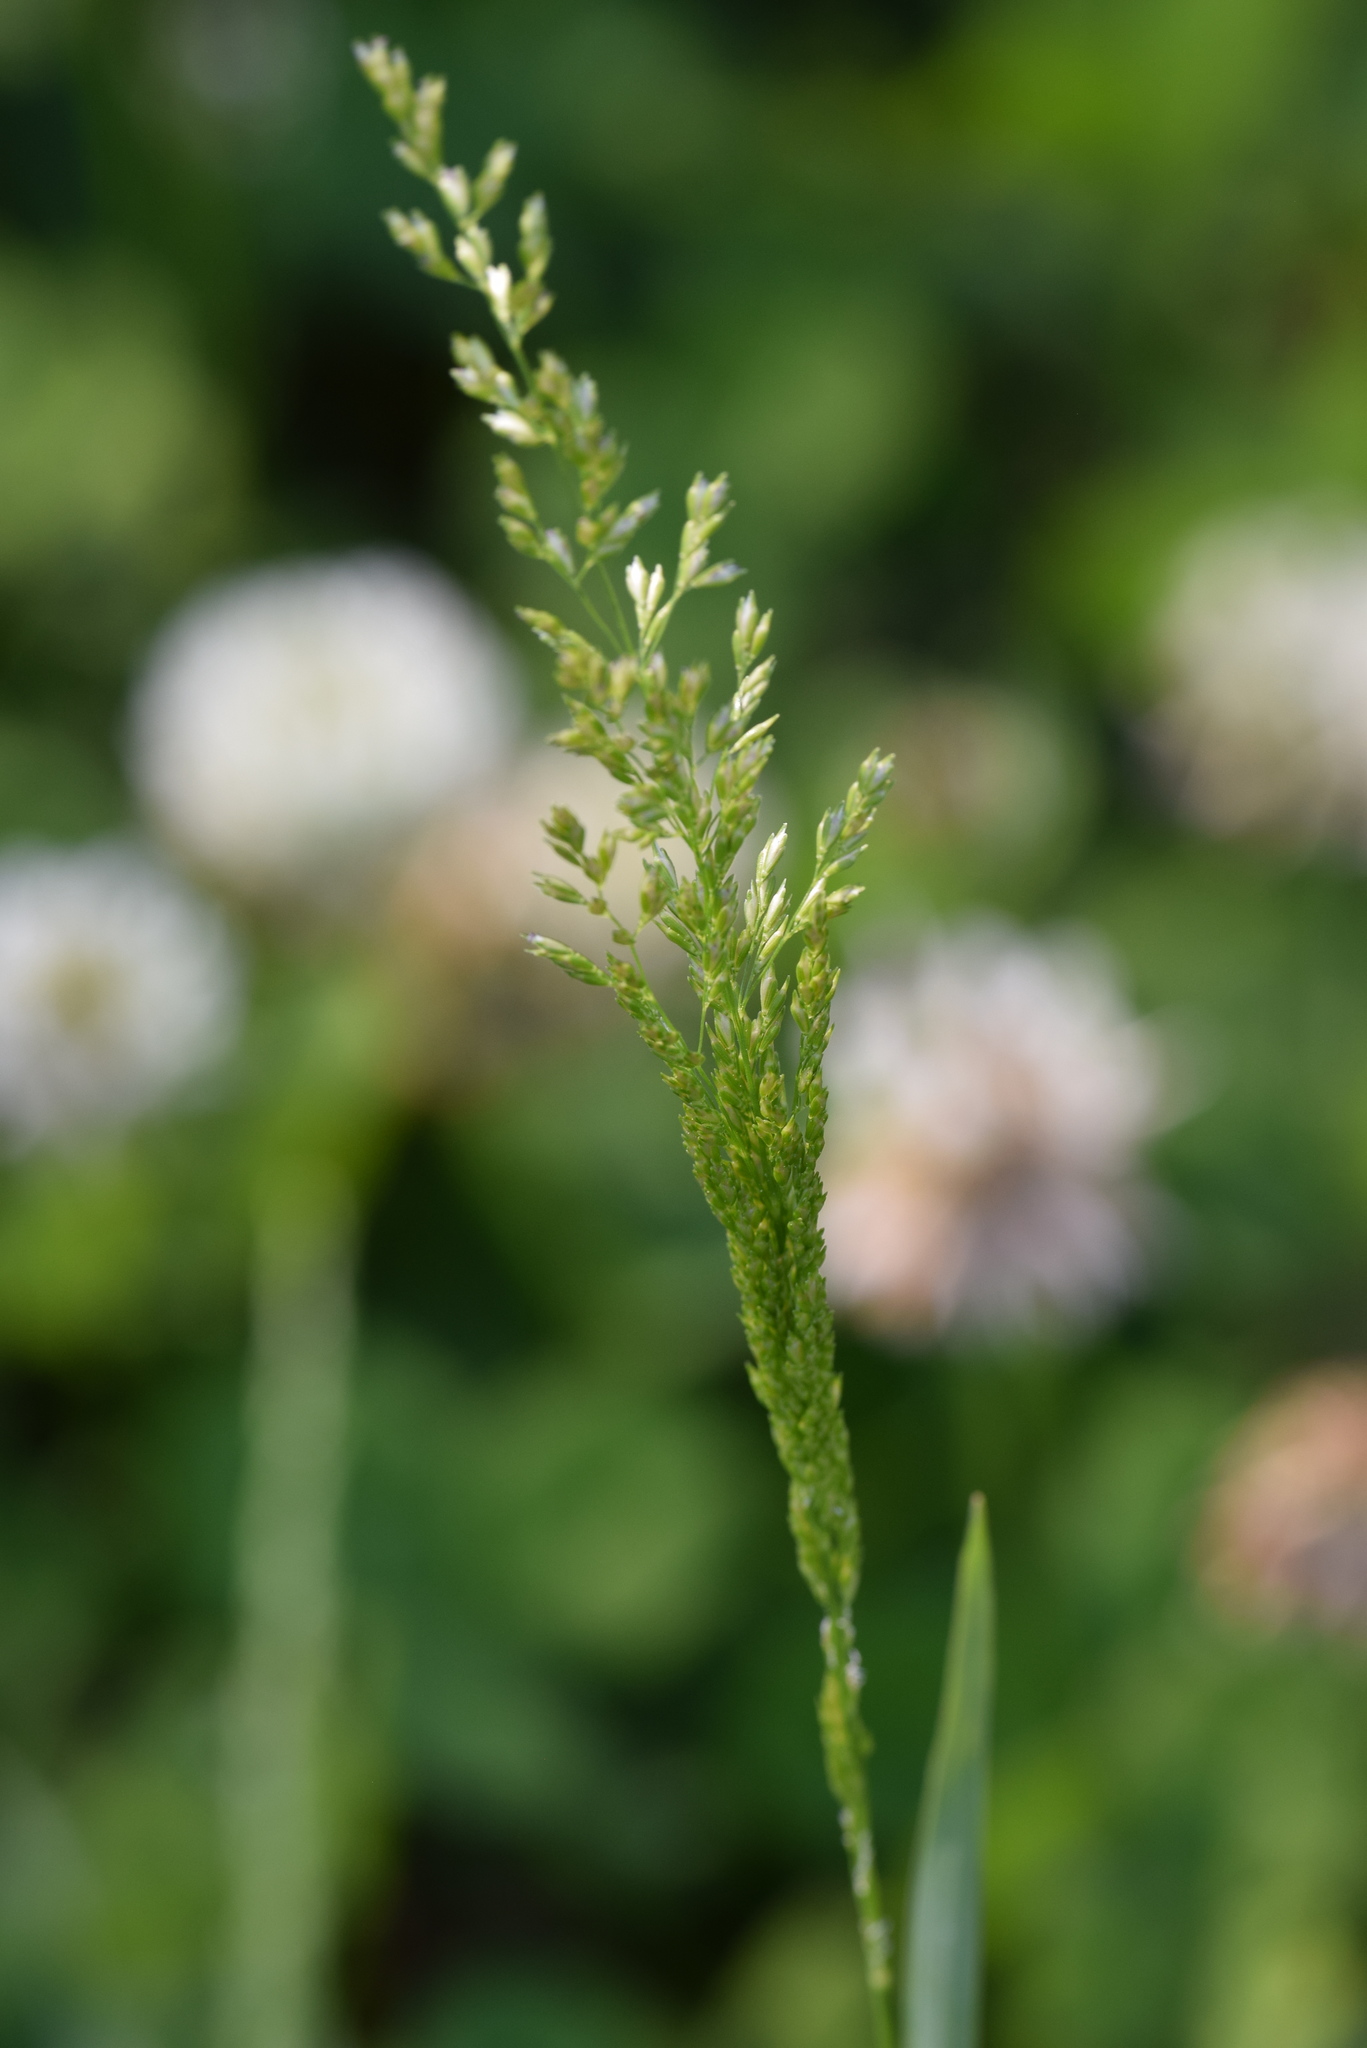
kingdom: Plantae
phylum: Tracheophyta
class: Liliopsida
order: Poales
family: Poaceae
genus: Sphenopholis
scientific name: Sphenopholis obtusata
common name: Prairie grass
